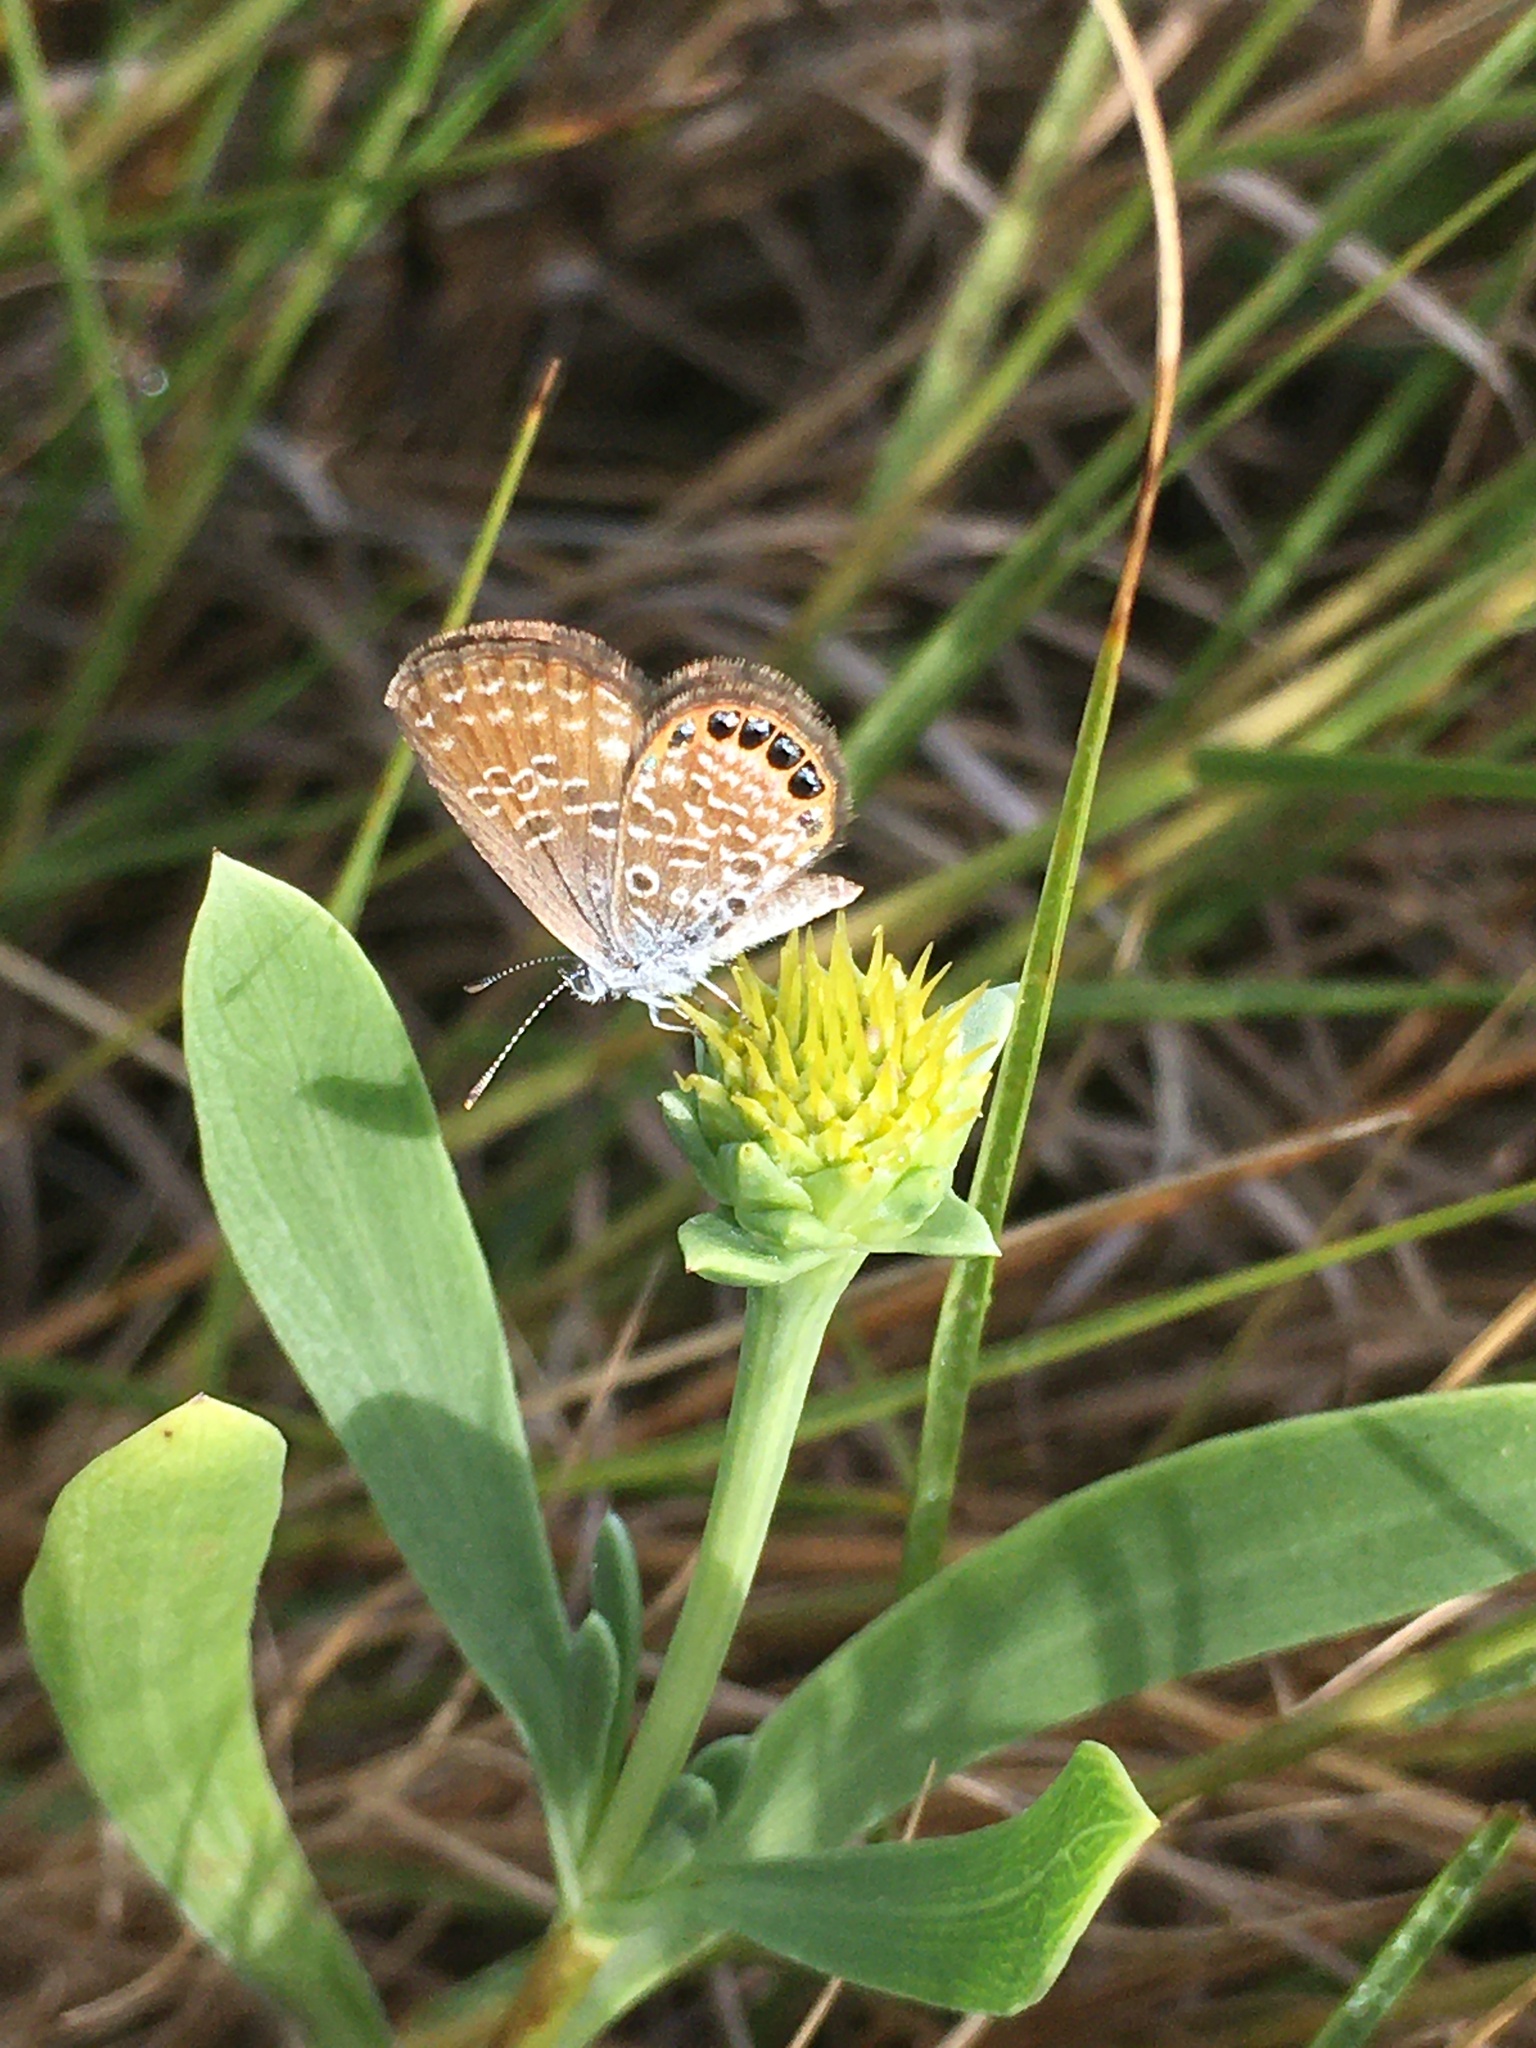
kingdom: Animalia
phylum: Arthropoda
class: Insecta
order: Lepidoptera
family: Lycaenidae
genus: Brephidium
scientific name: Brephidium isophthalma
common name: Eastern pygmy-blue
